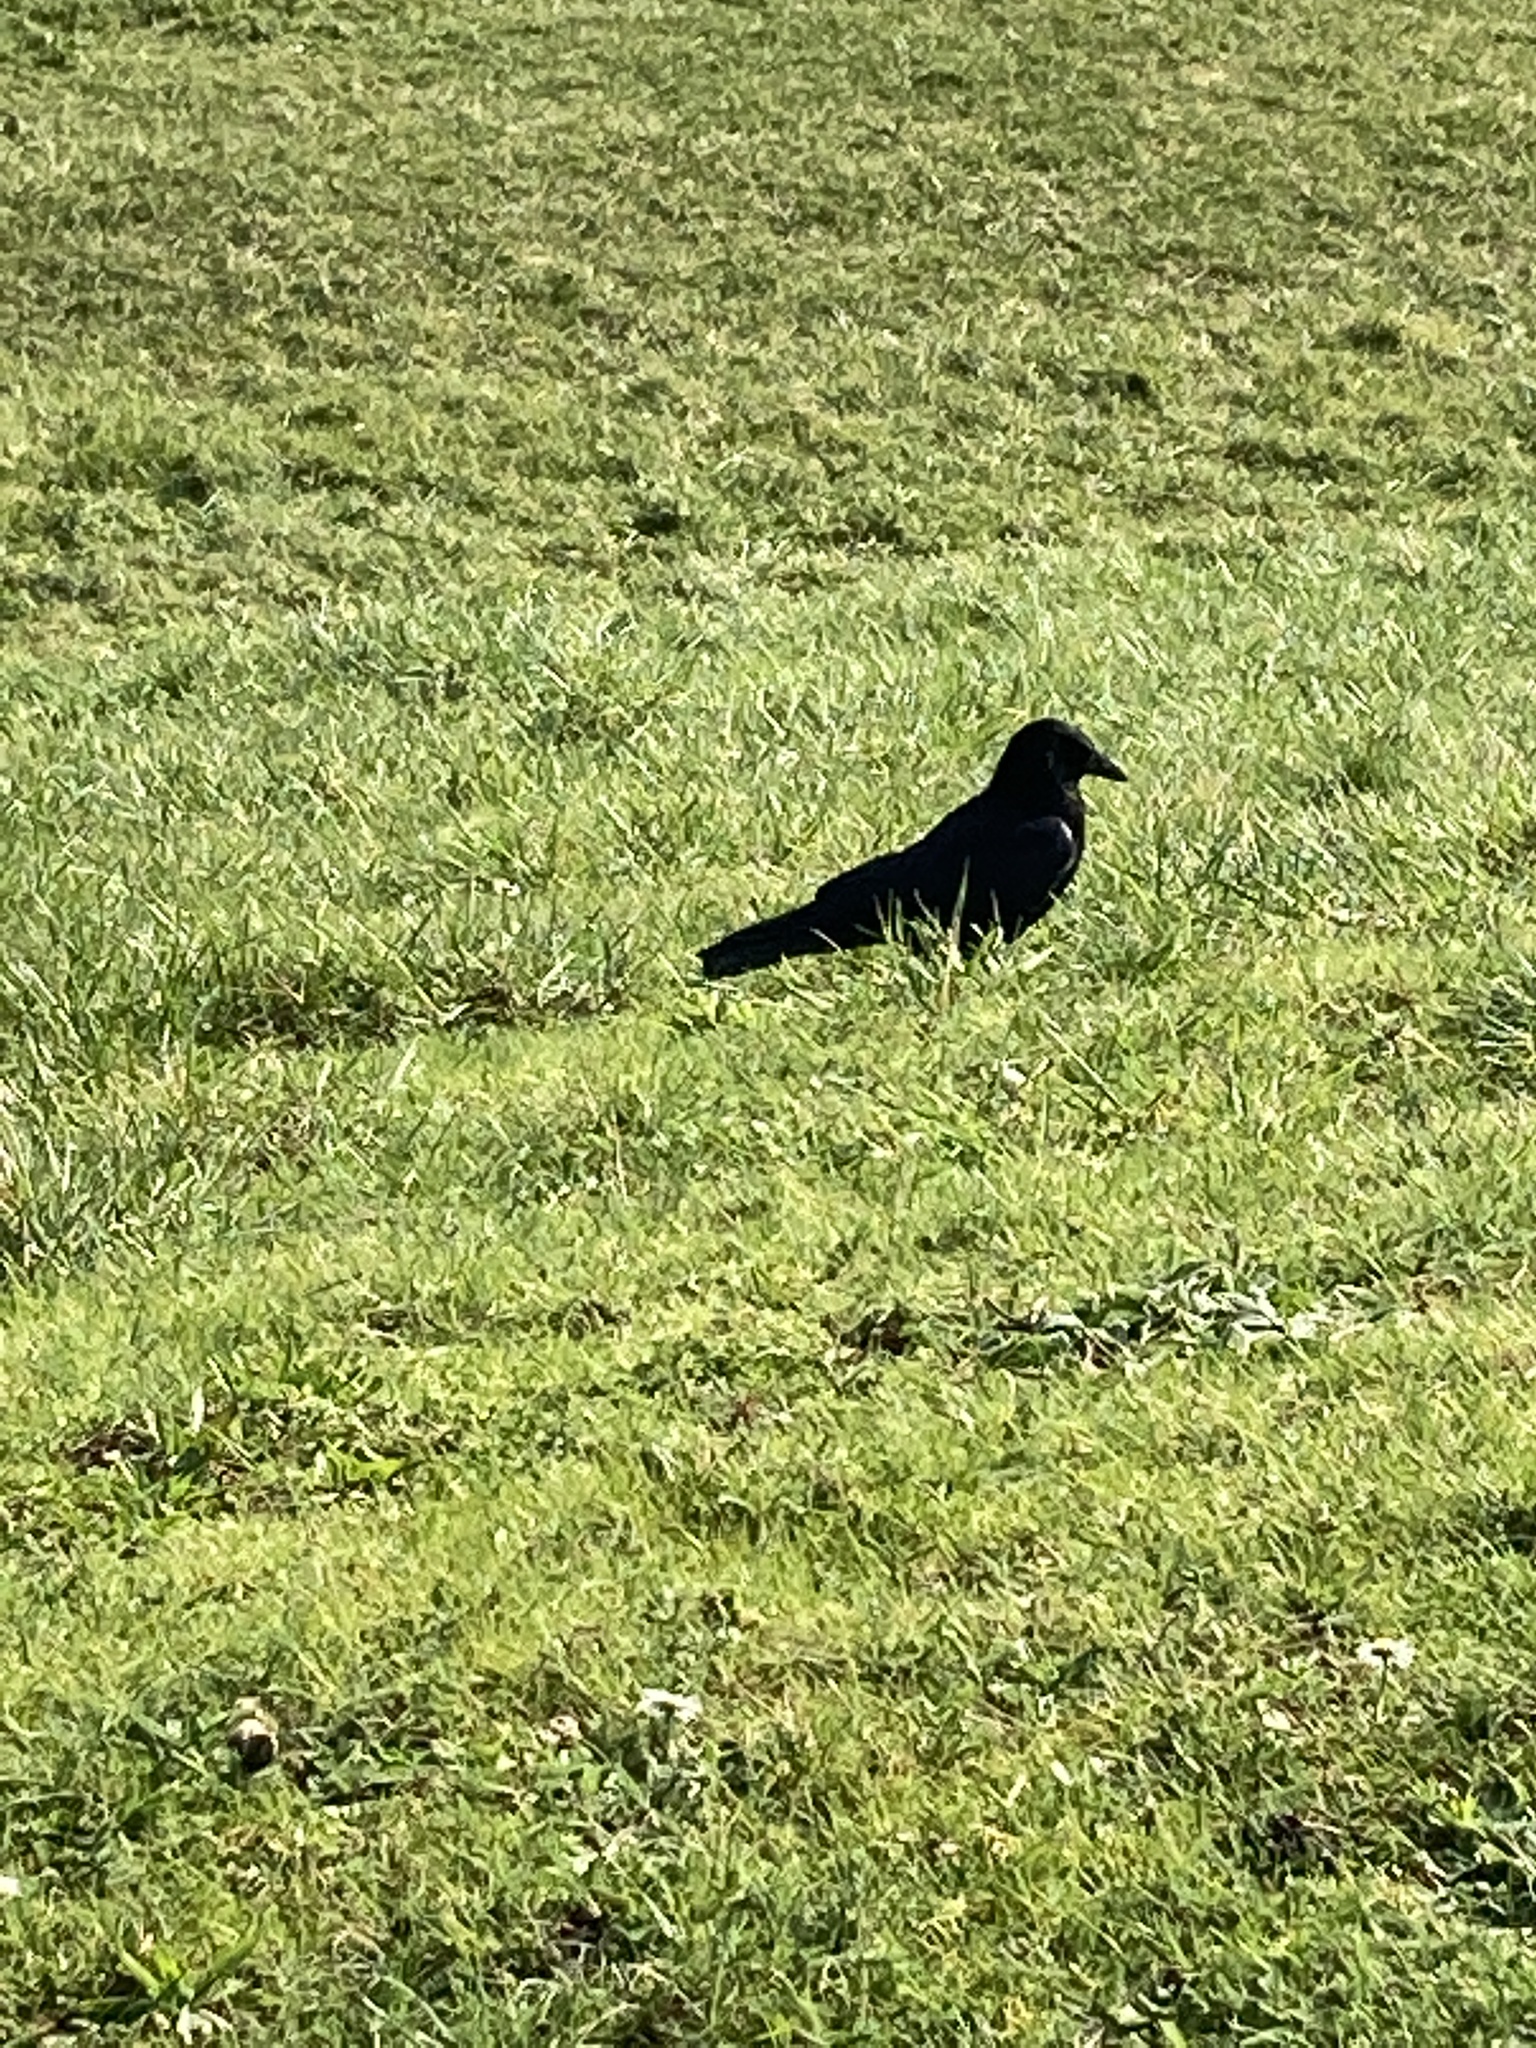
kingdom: Animalia
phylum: Chordata
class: Aves
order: Passeriformes
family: Corvidae
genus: Corvus
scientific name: Corvus corone
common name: Carrion crow
